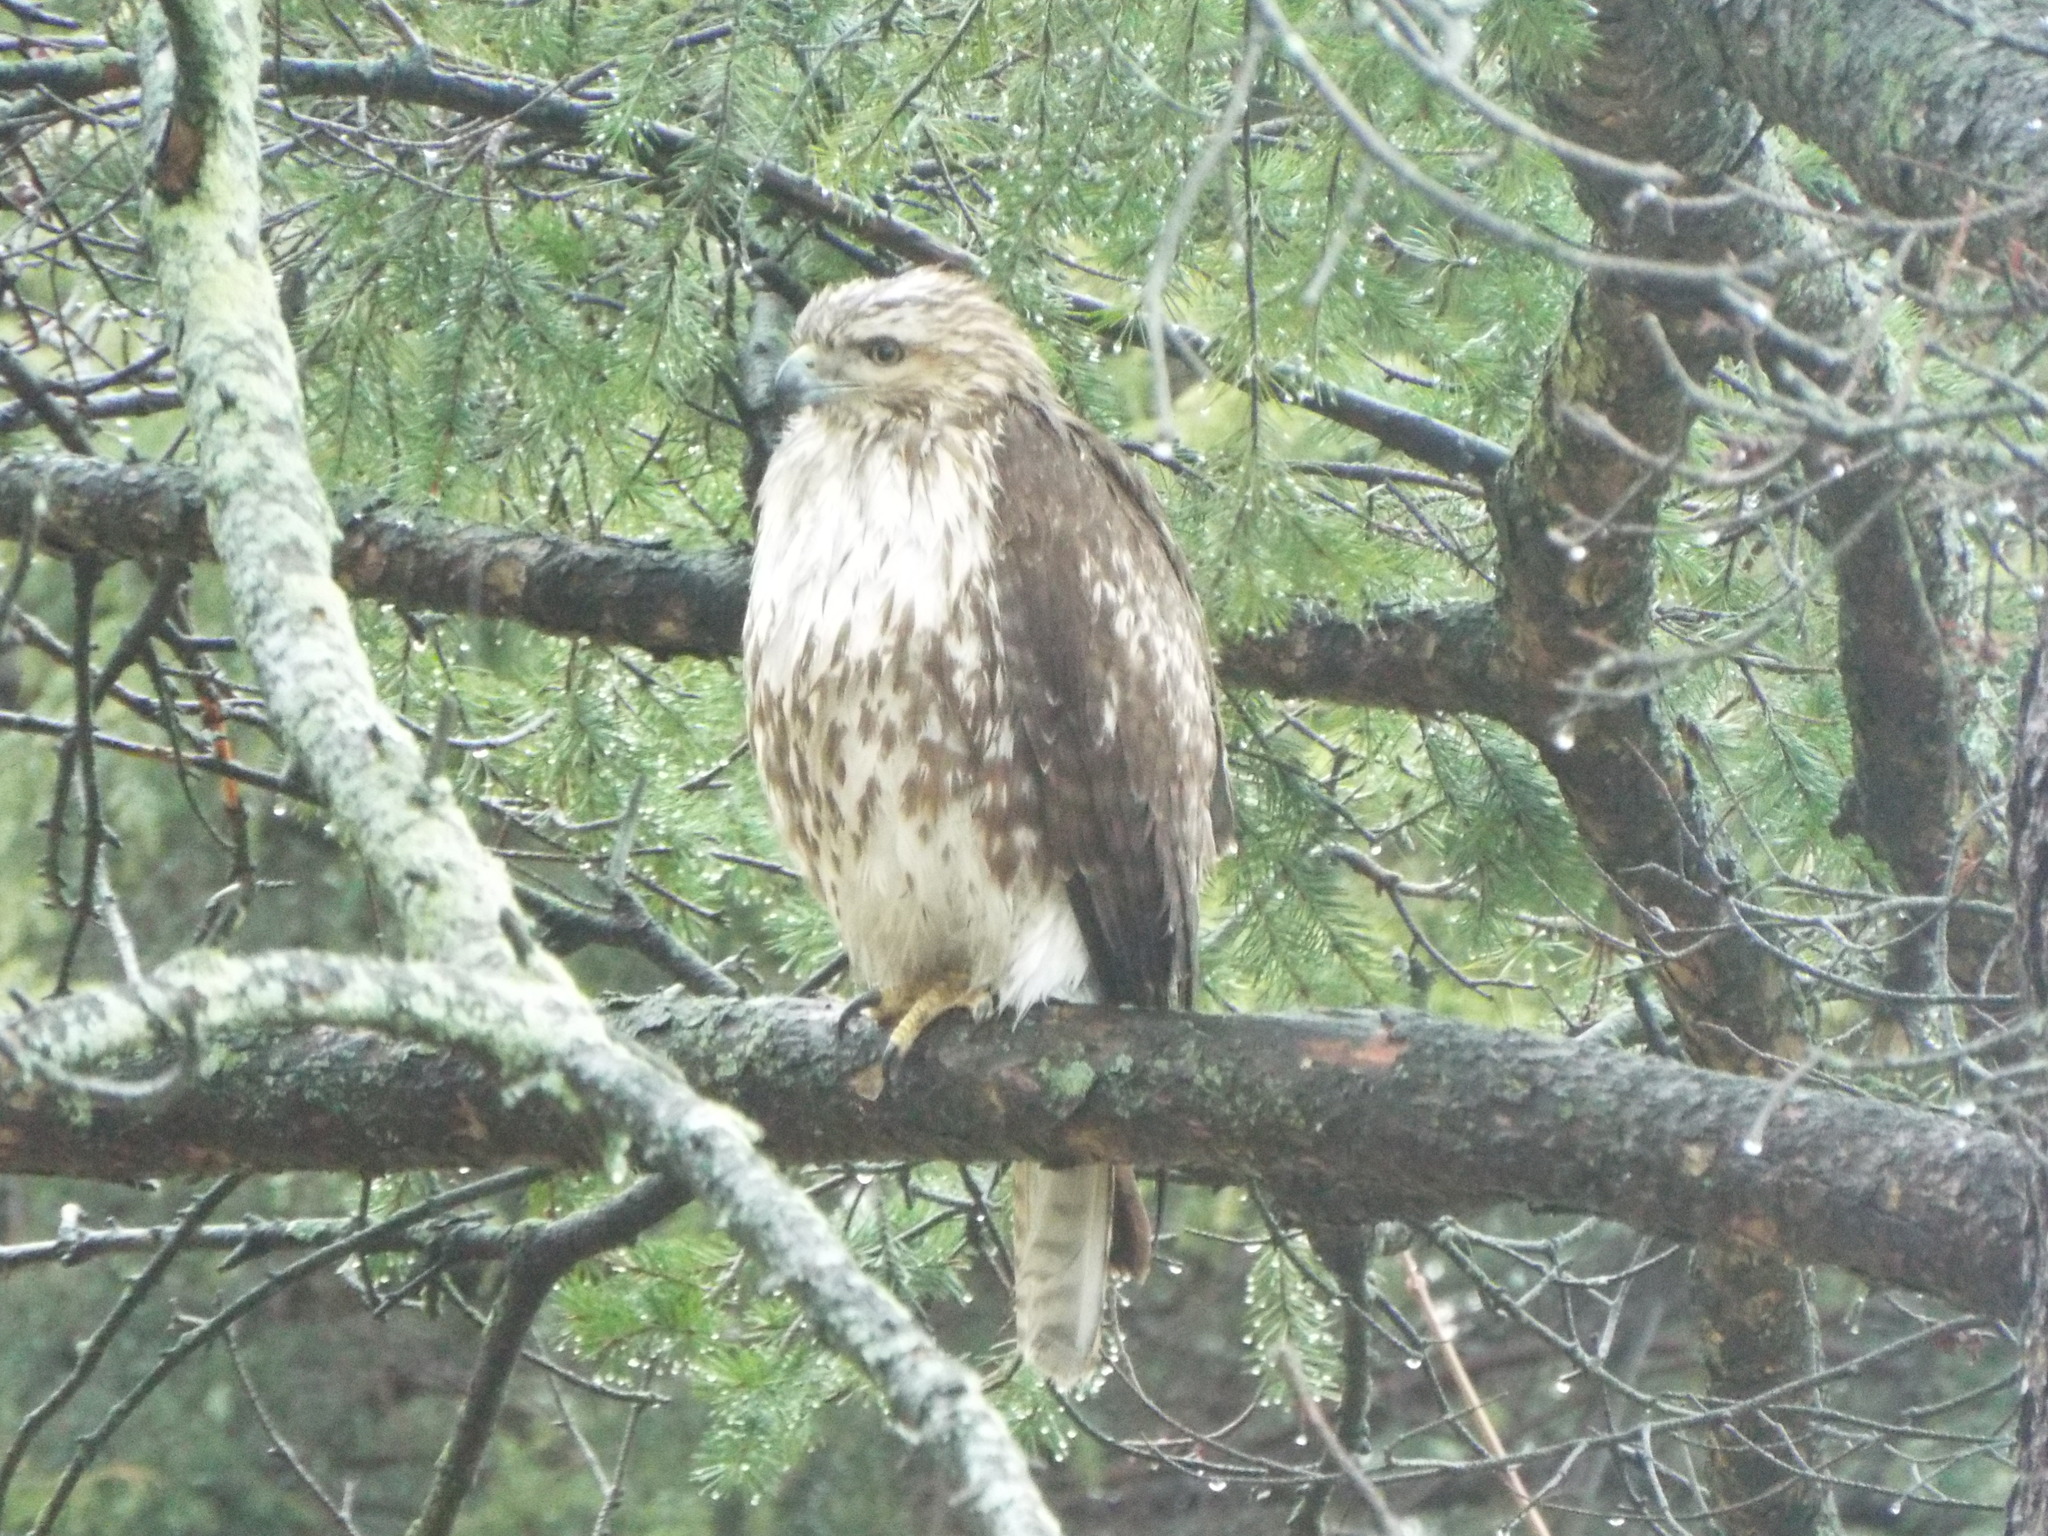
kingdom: Animalia
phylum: Chordata
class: Aves
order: Accipitriformes
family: Accipitridae
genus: Buteo
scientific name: Buteo jamaicensis
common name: Red-tailed hawk
